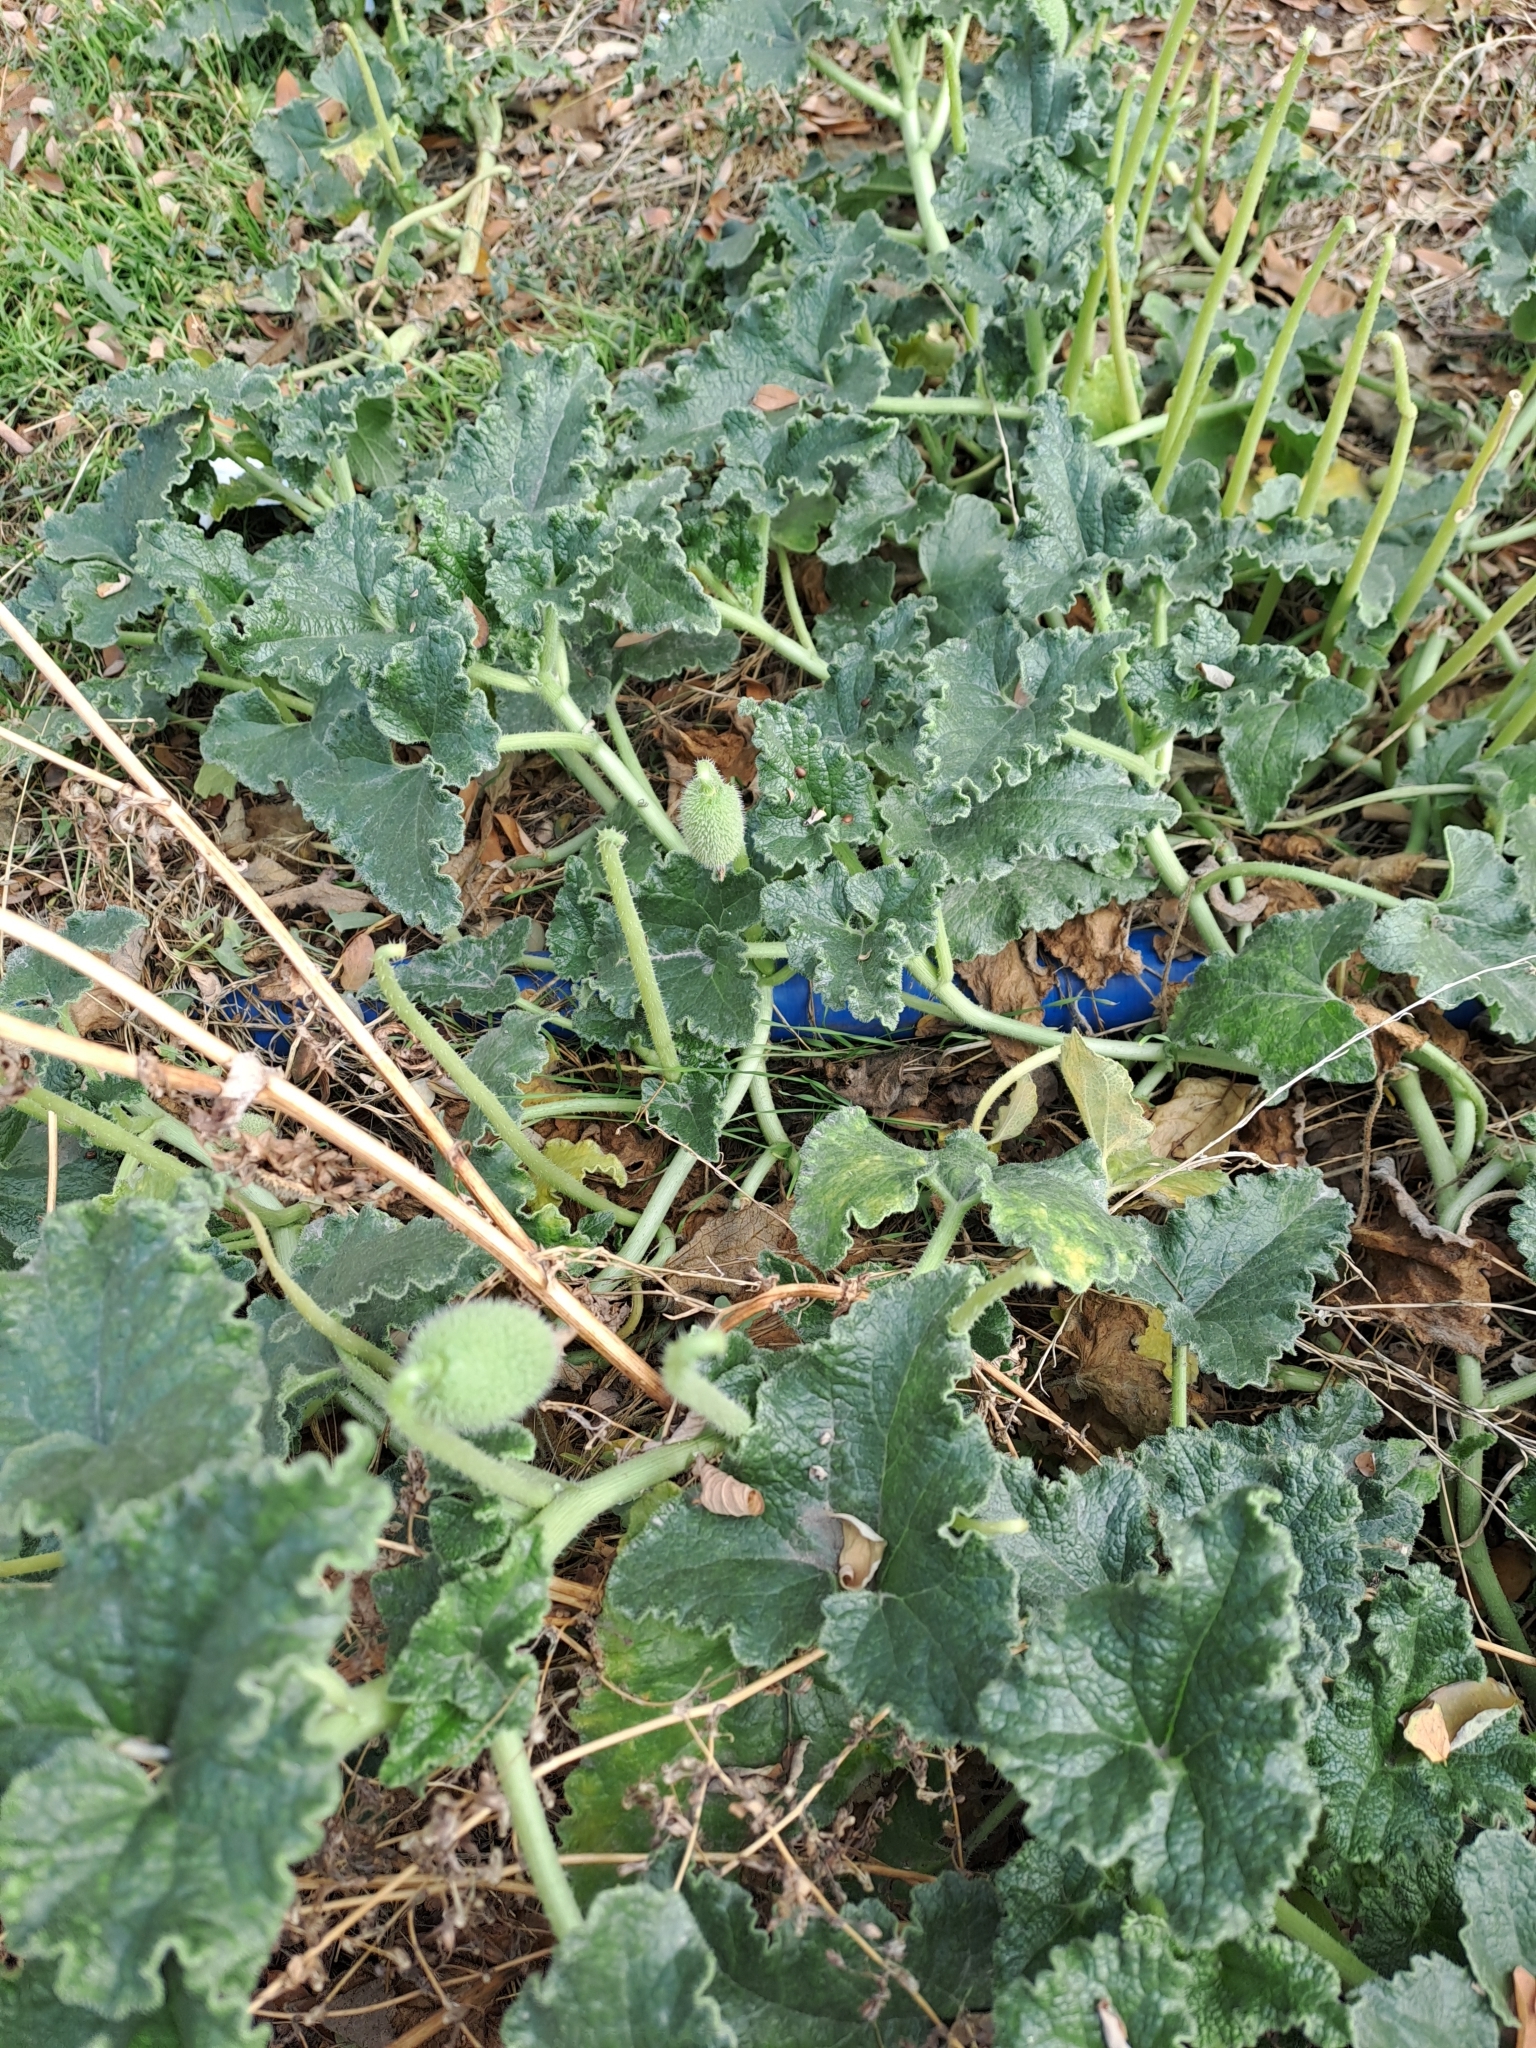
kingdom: Plantae
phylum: Tracheophyta
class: Magnoliopsida
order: Cucurbitales
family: Cucurbitaceae
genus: Ecballium
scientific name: Ecballium elaterium
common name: Squirting cucumber
